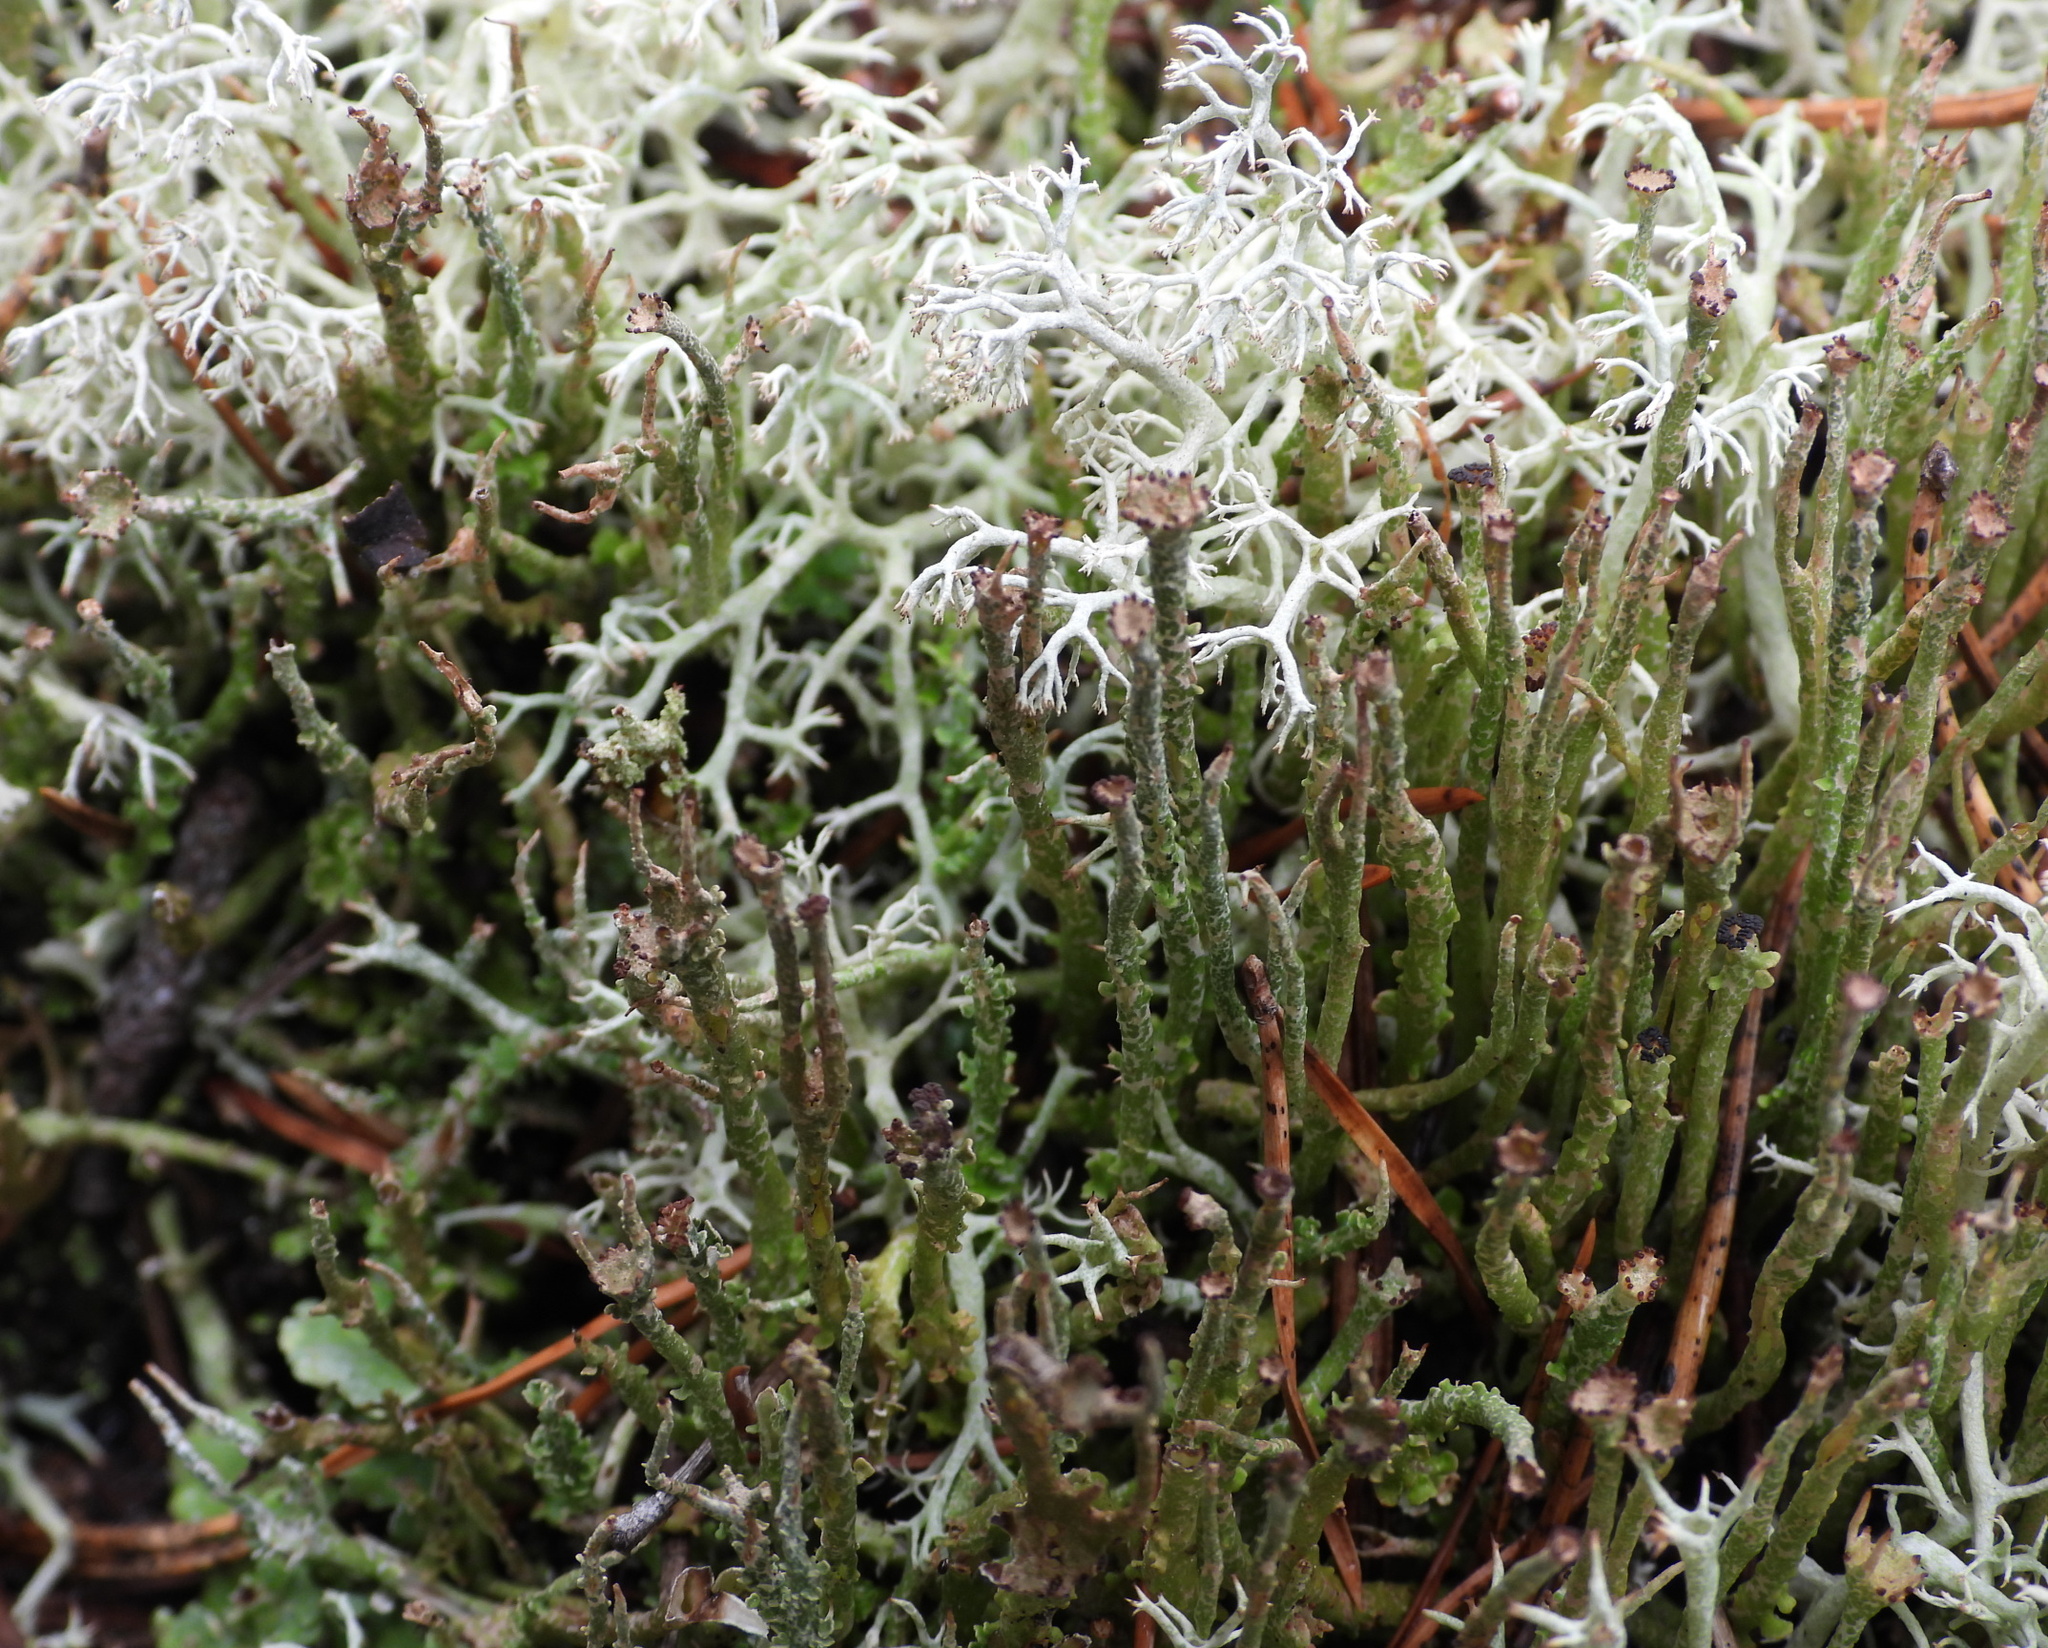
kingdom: Fungi
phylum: Ascomycota
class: Lecanoromycetes
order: Lecanorales
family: Cladoniaceae
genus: Cladonia
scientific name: Cladonia gracilis
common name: Smooth clad lichen
